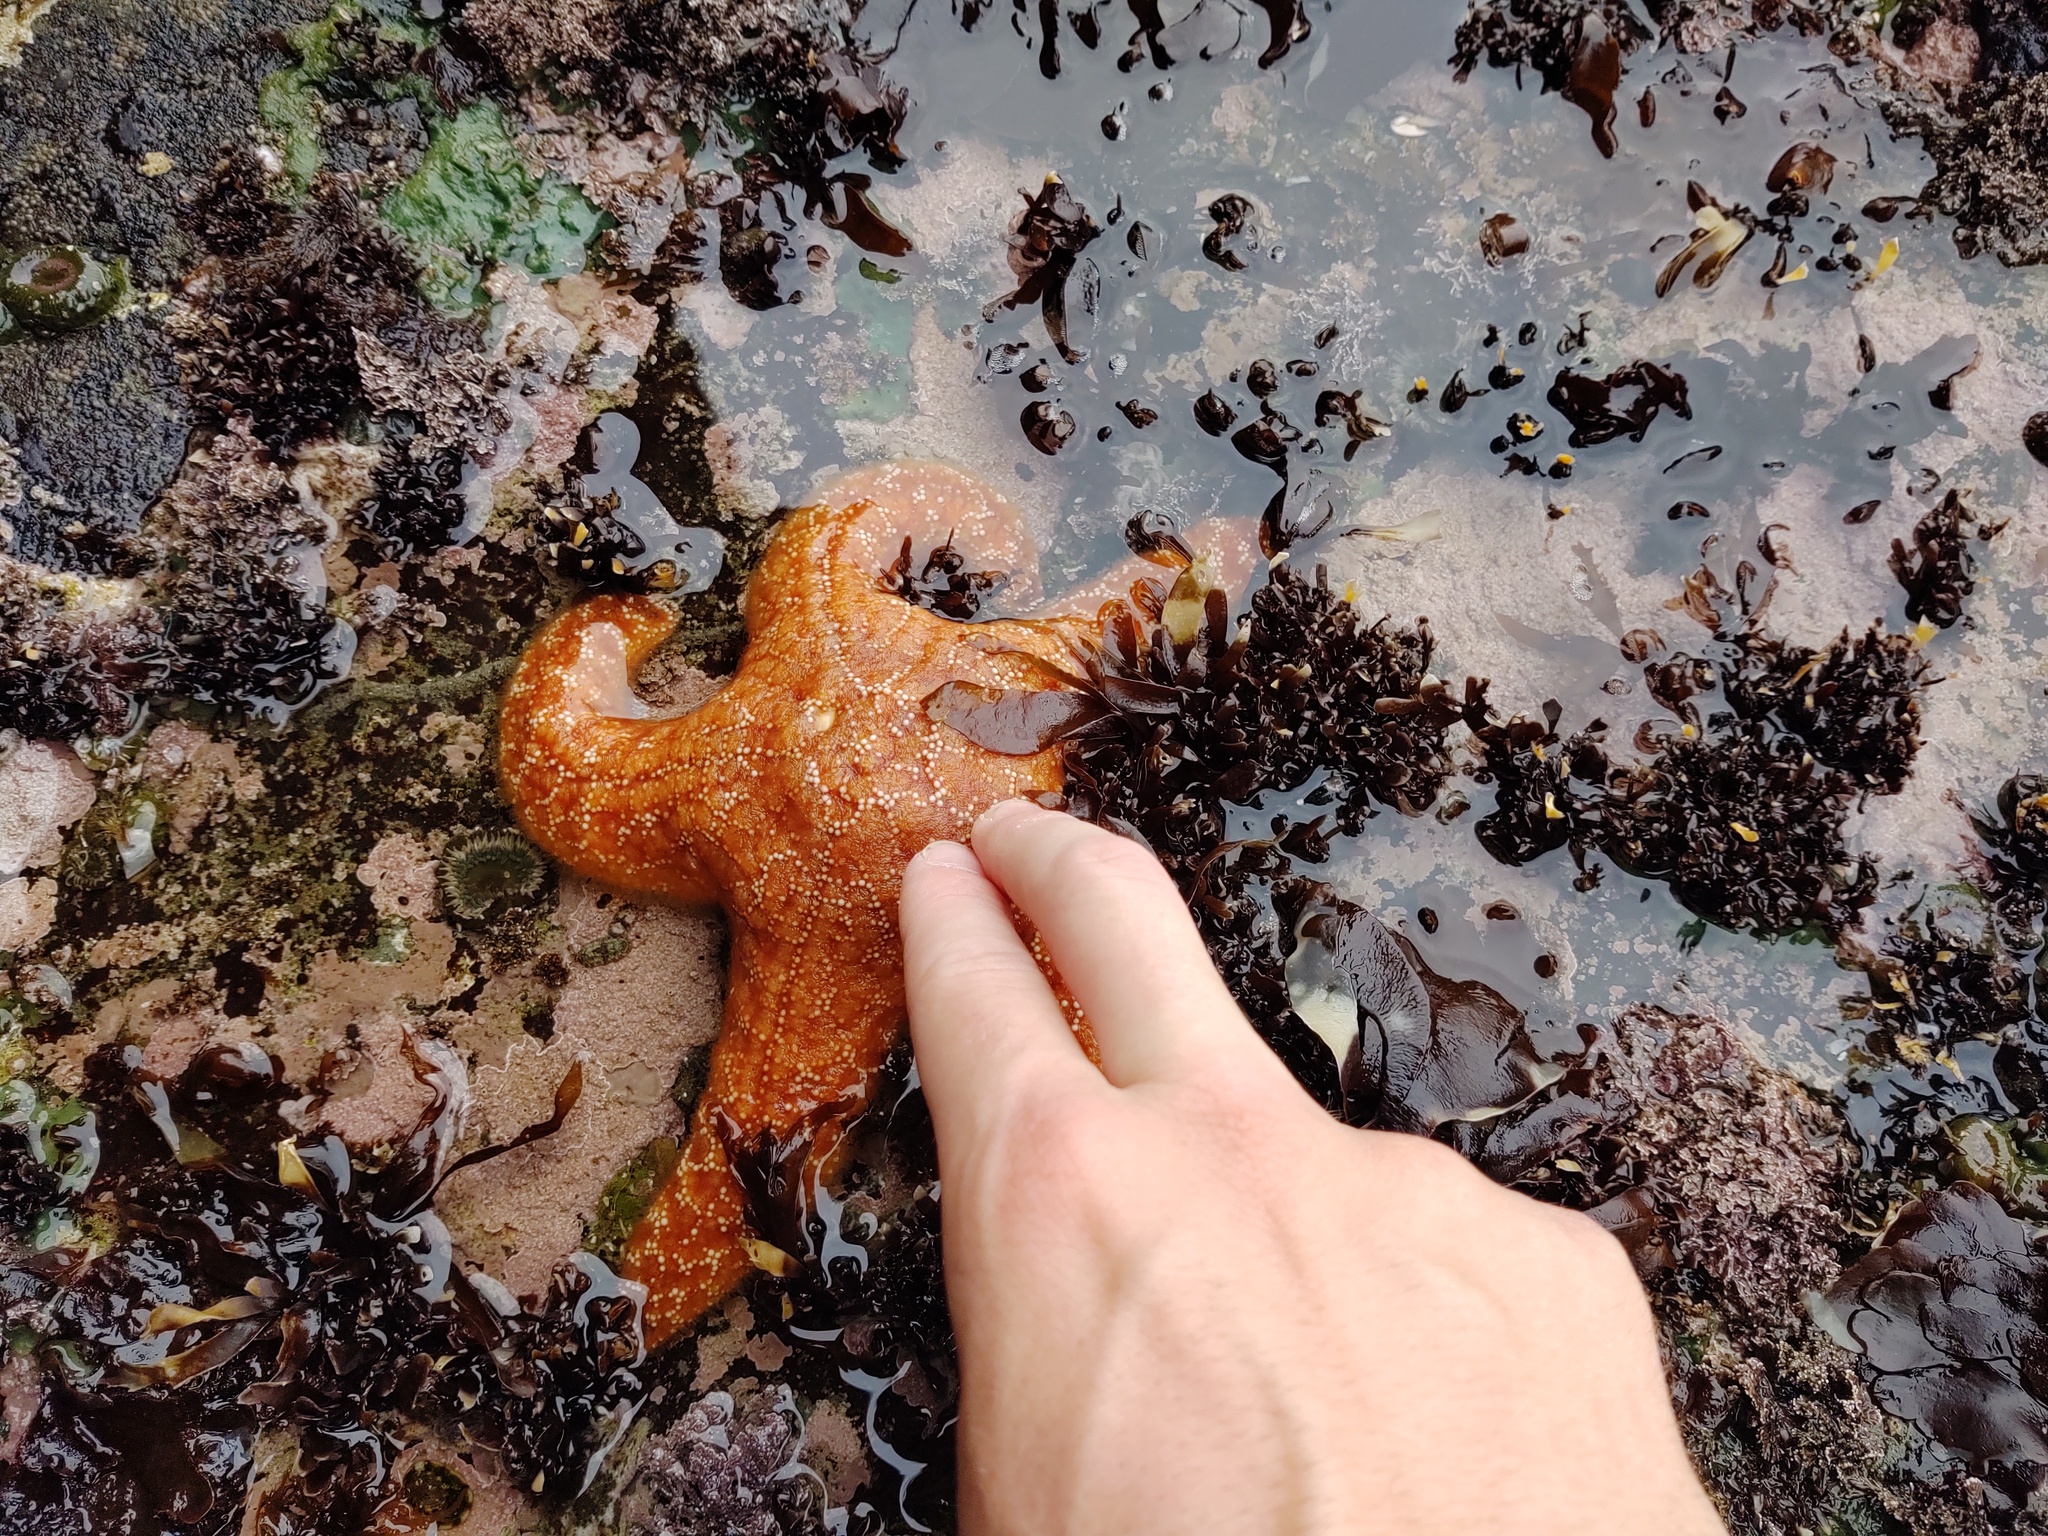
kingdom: Animalia
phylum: Echinodermata
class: Asteroidea
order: Forcipulatida
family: Asteriidae
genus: Pisaster
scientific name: Pisaster ochraceus
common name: Ochre stars
